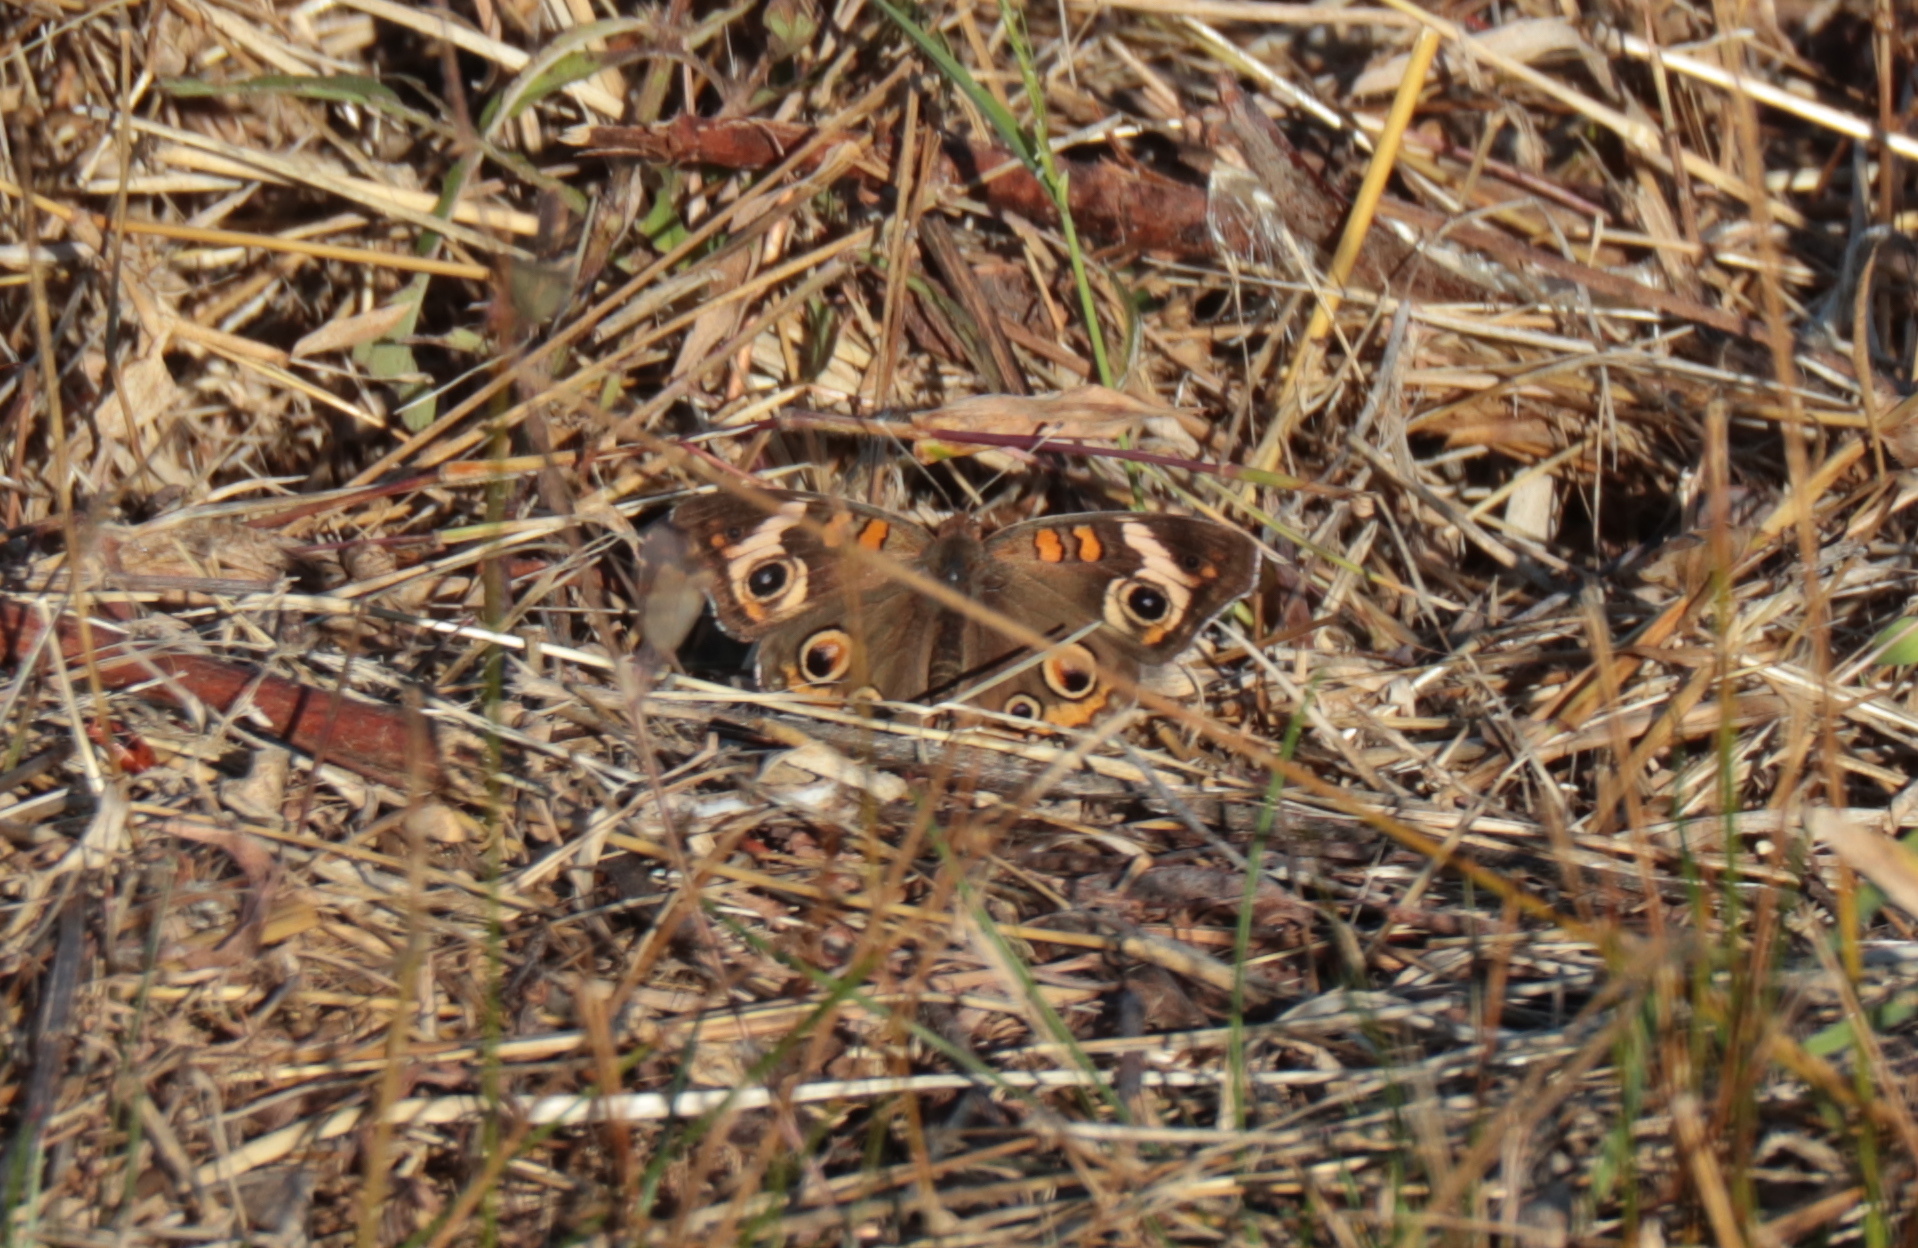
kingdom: Animalia
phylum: Arthropoda
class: Insecta
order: Lepidoptera
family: Nymphalidae
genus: Junonia
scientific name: Junonia coenia
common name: Common buckeye
